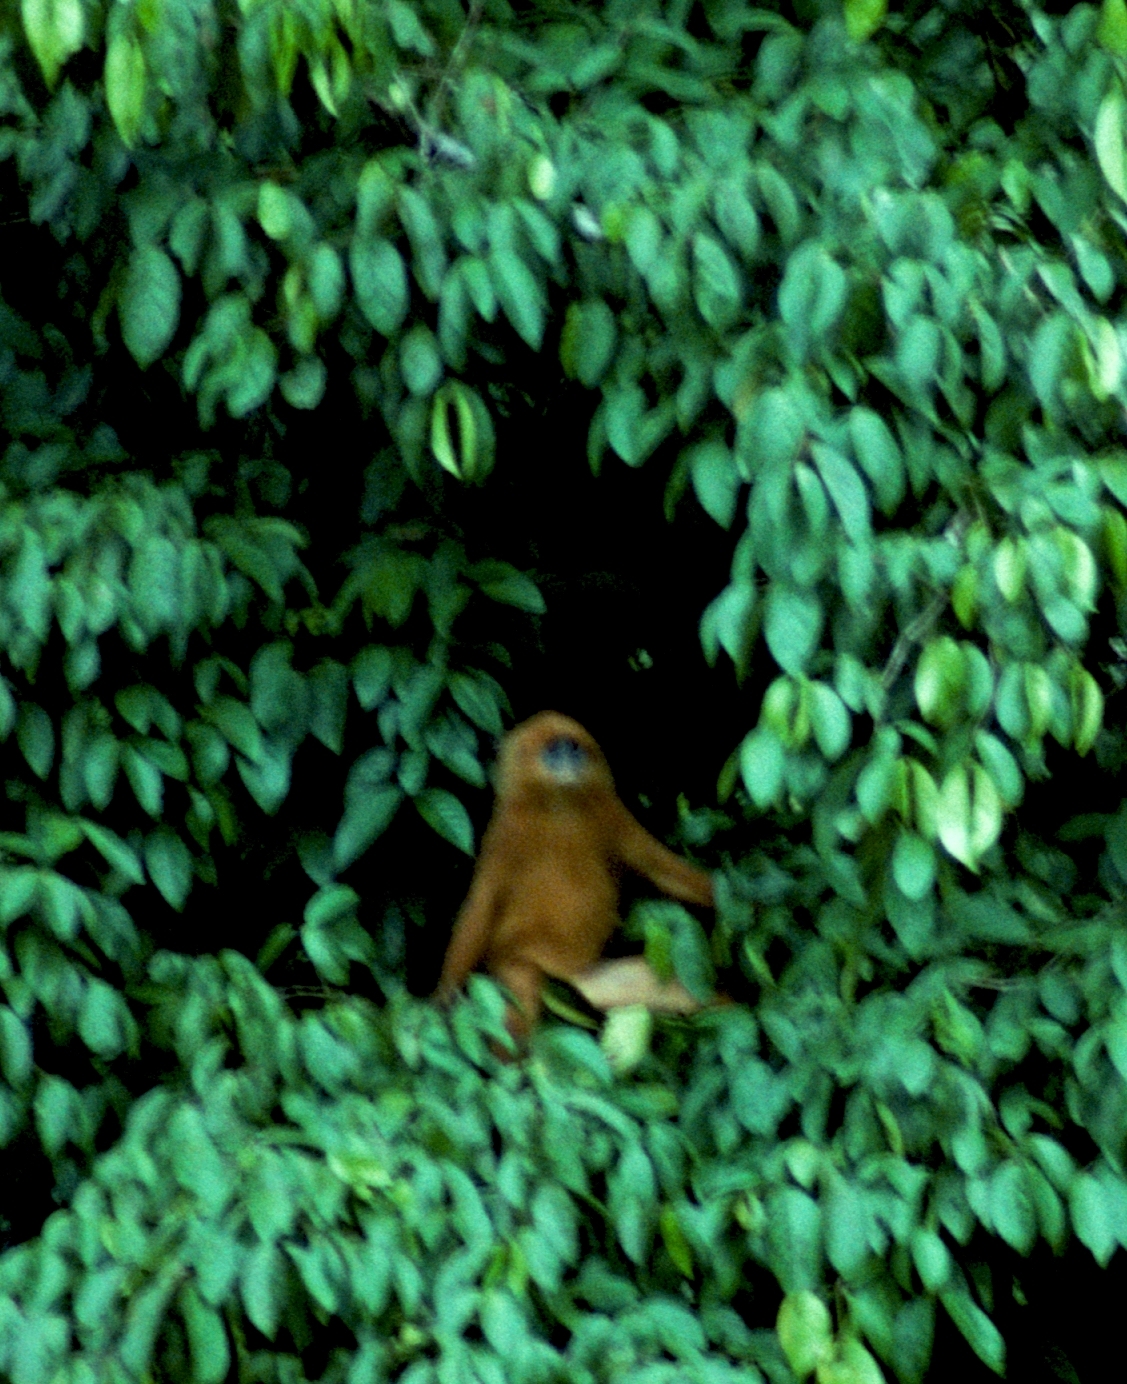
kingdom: Animalia
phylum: Chordata
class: Mammalia
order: Primates
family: Cercopithecidae
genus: Presbytis
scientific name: Presbytis rubicunda
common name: Maroon leaf monkey
